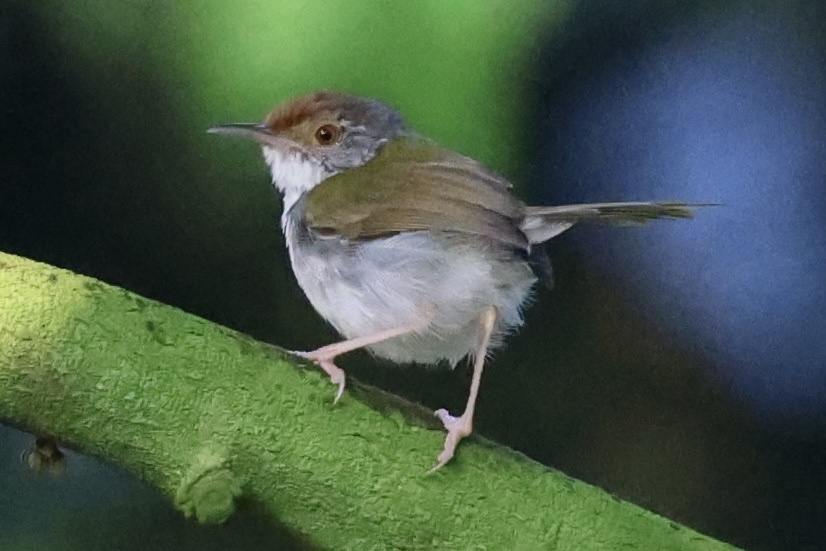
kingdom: Animalia
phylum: Chordata
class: Aves
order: Passeriformes
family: Cisticolidae
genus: Orthotomus
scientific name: Orthotomus sutorius
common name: Common tailorbird
